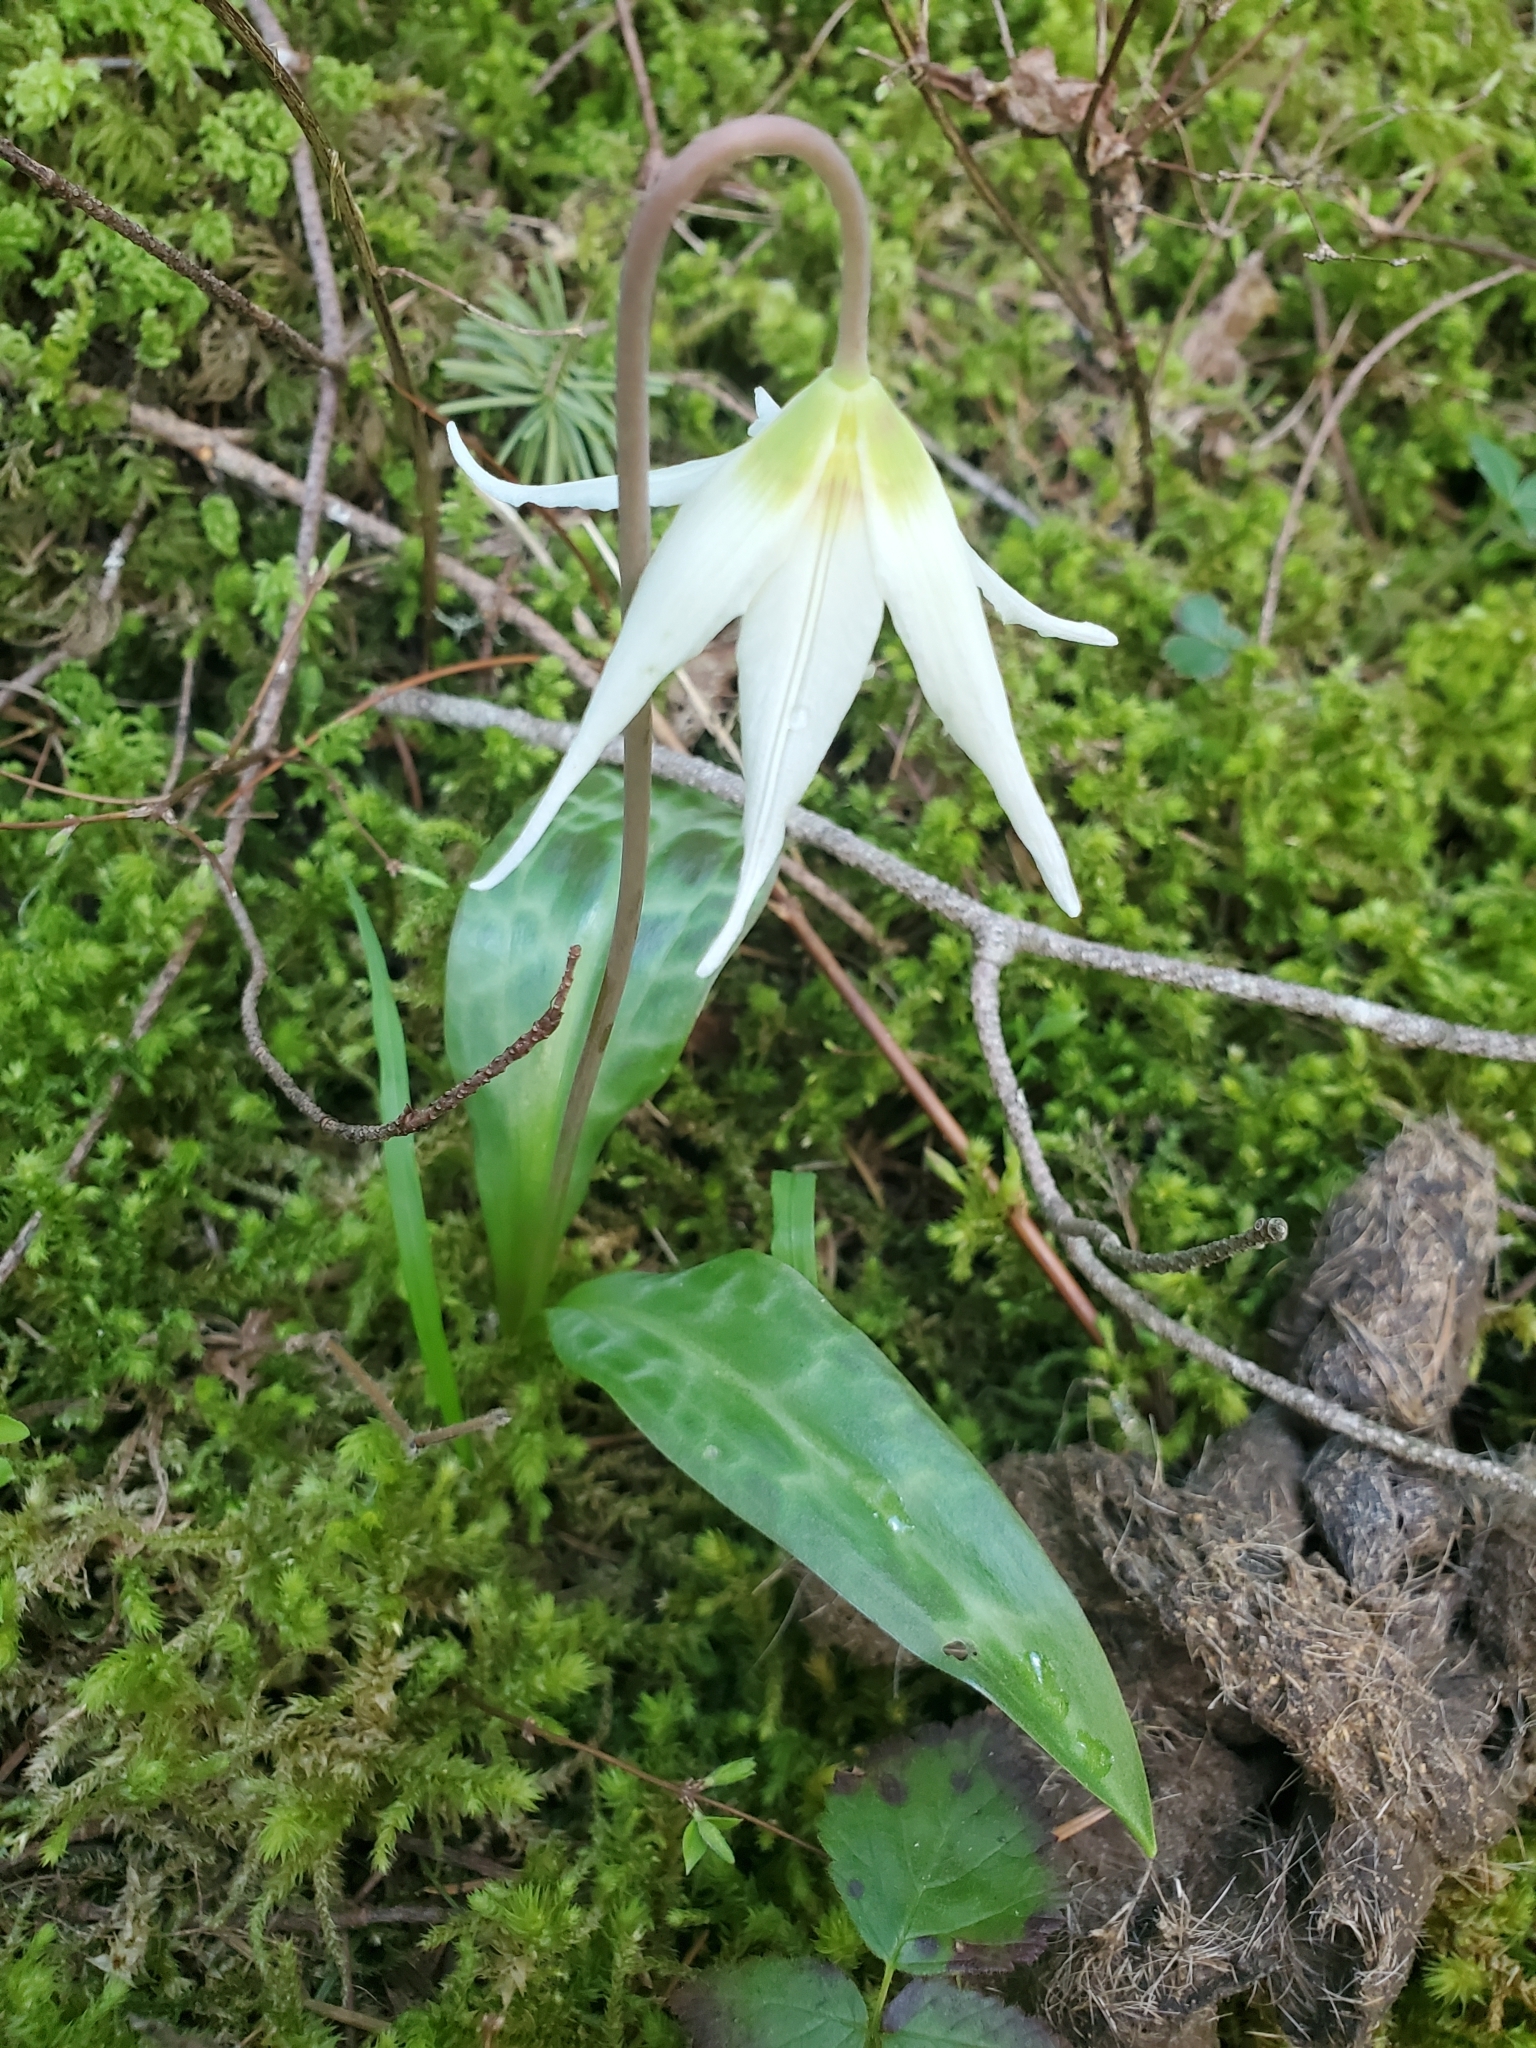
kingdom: Plantae
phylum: Tracheophyta
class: Liliopsida
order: Liliales
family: Liliaceae
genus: Erythronium
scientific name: Erythronium oregonum
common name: Giant adder's-tongue
